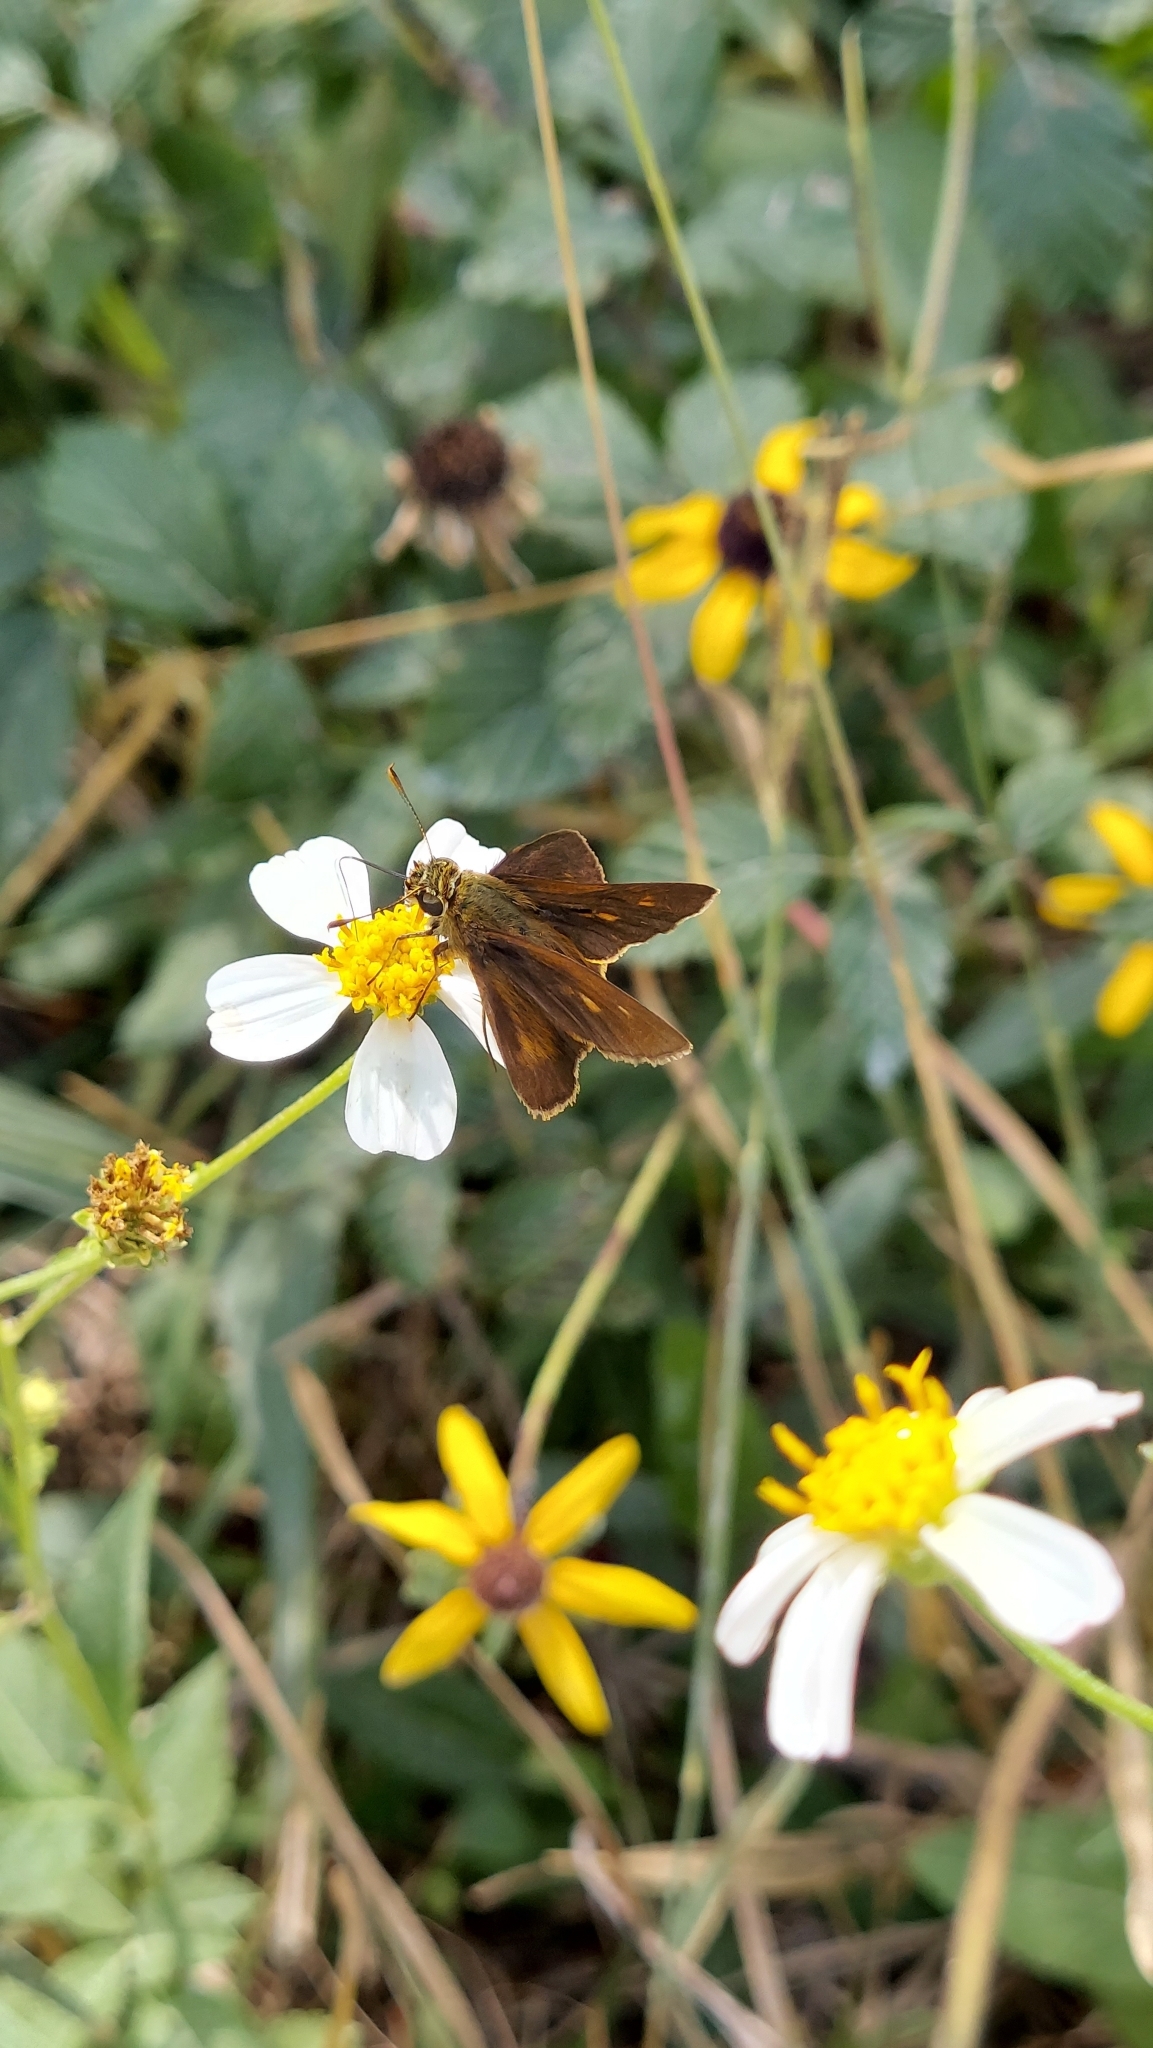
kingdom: Animalia
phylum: Arthropoda
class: Insecta
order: Lepidoptera
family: Hesperiidae
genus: Polites
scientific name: Polites otho
